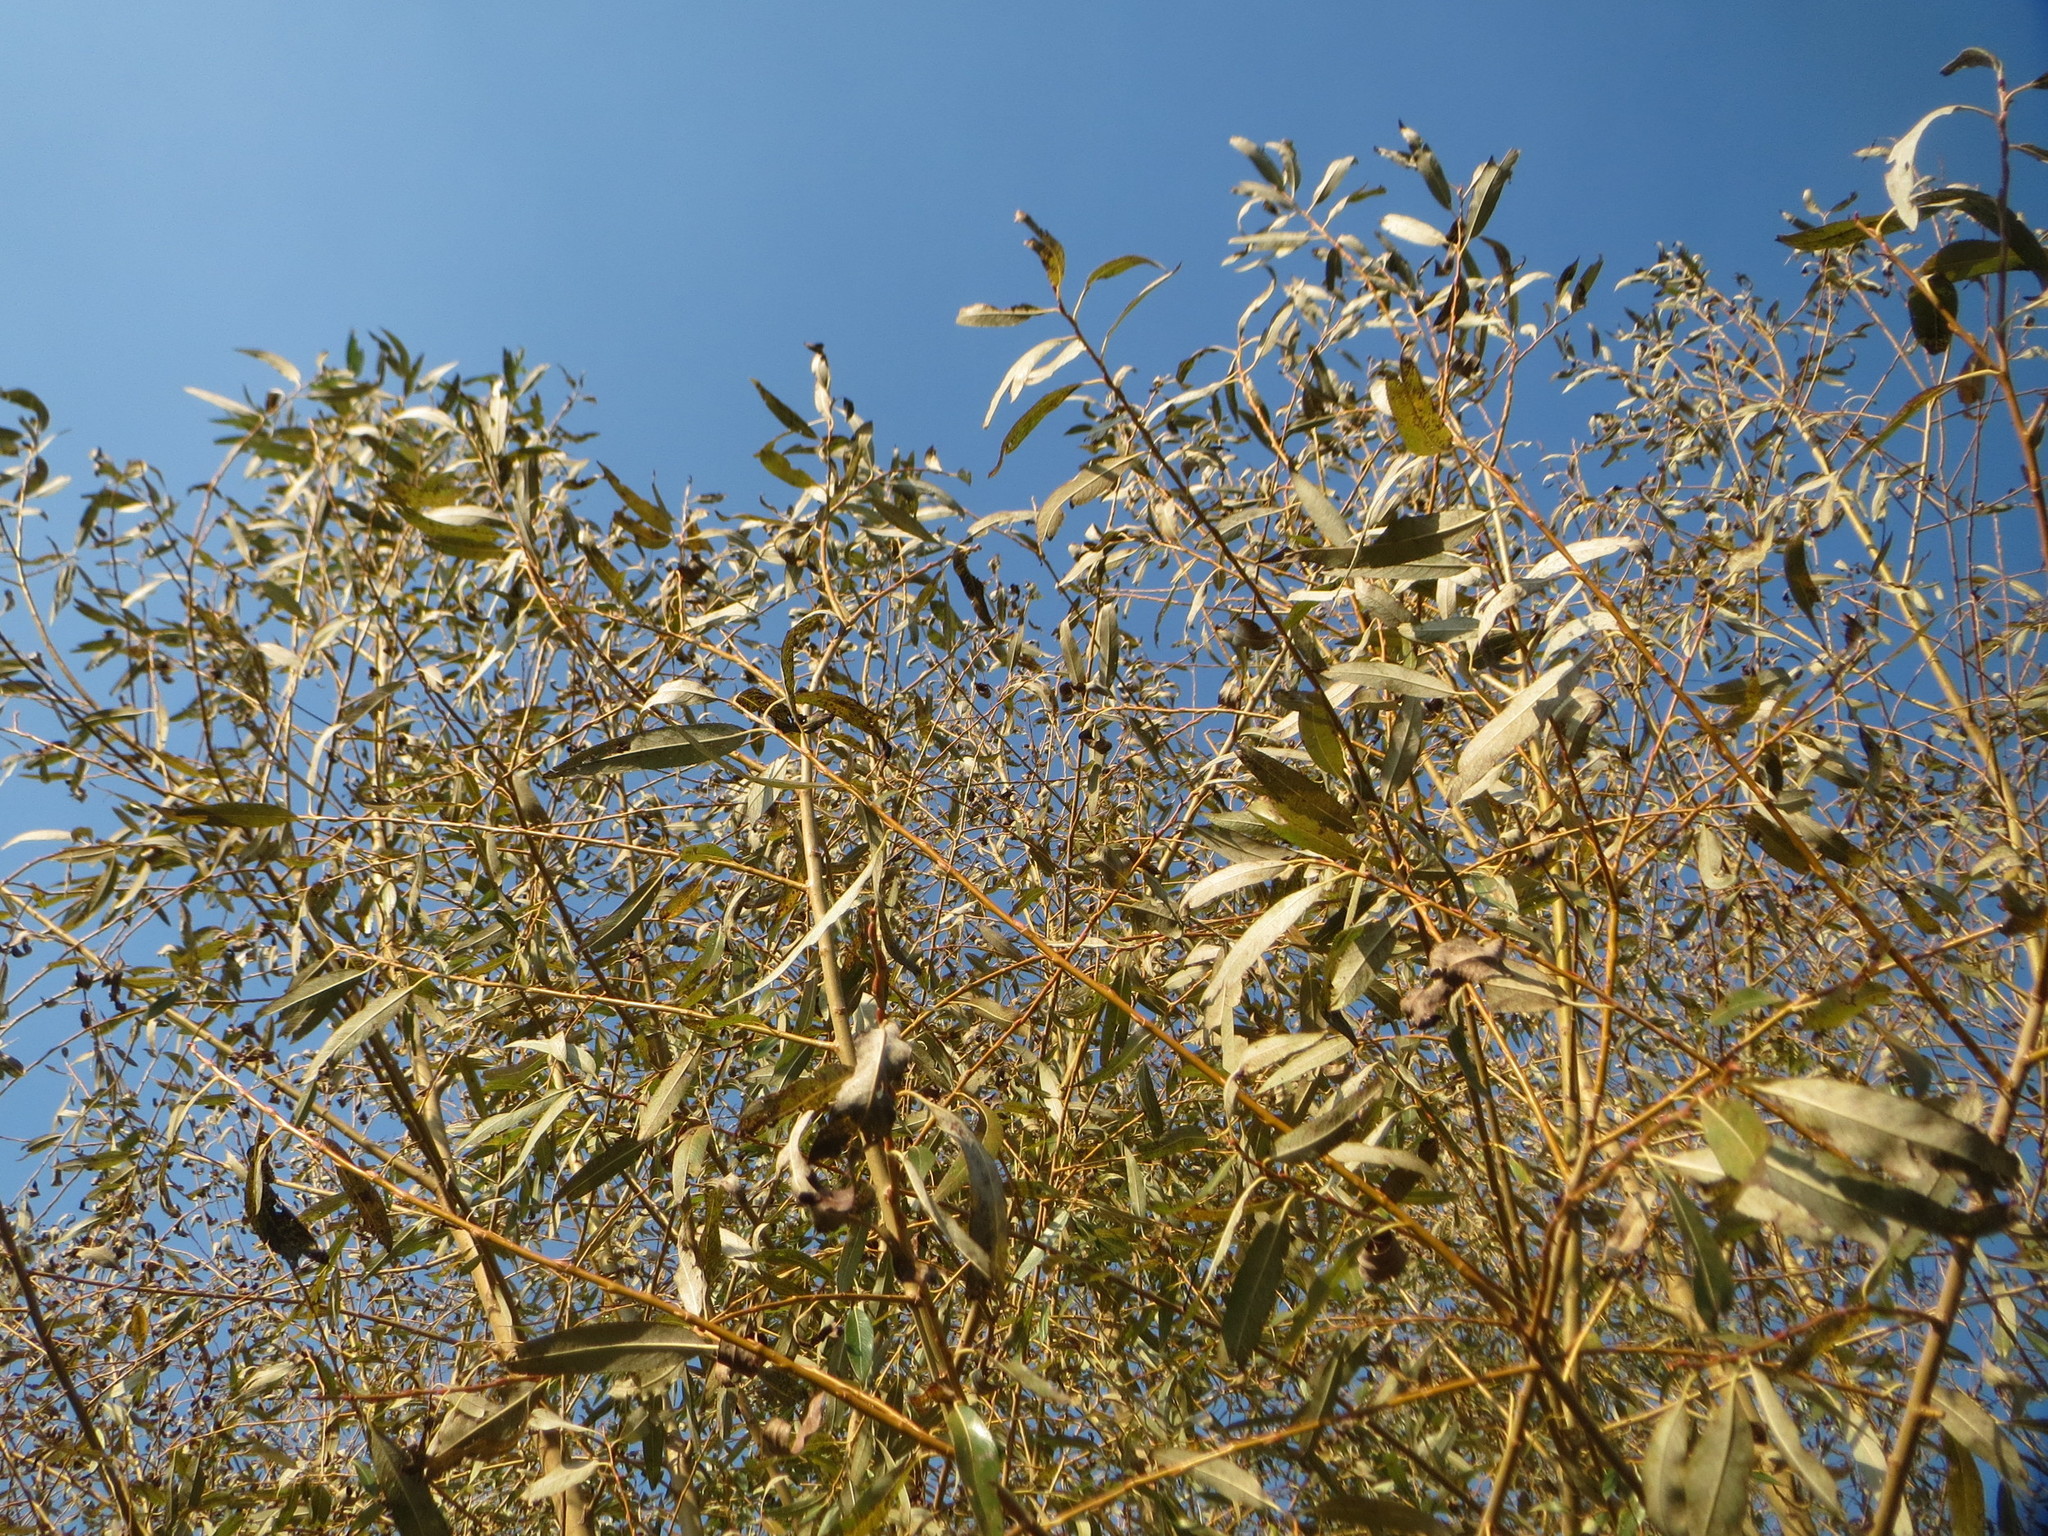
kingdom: Plantae
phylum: Tracheophyta
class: Magnoliopsida
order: Malpighiales
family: Salicaceae
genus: Salix
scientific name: Salix fragilis
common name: Crack willow
